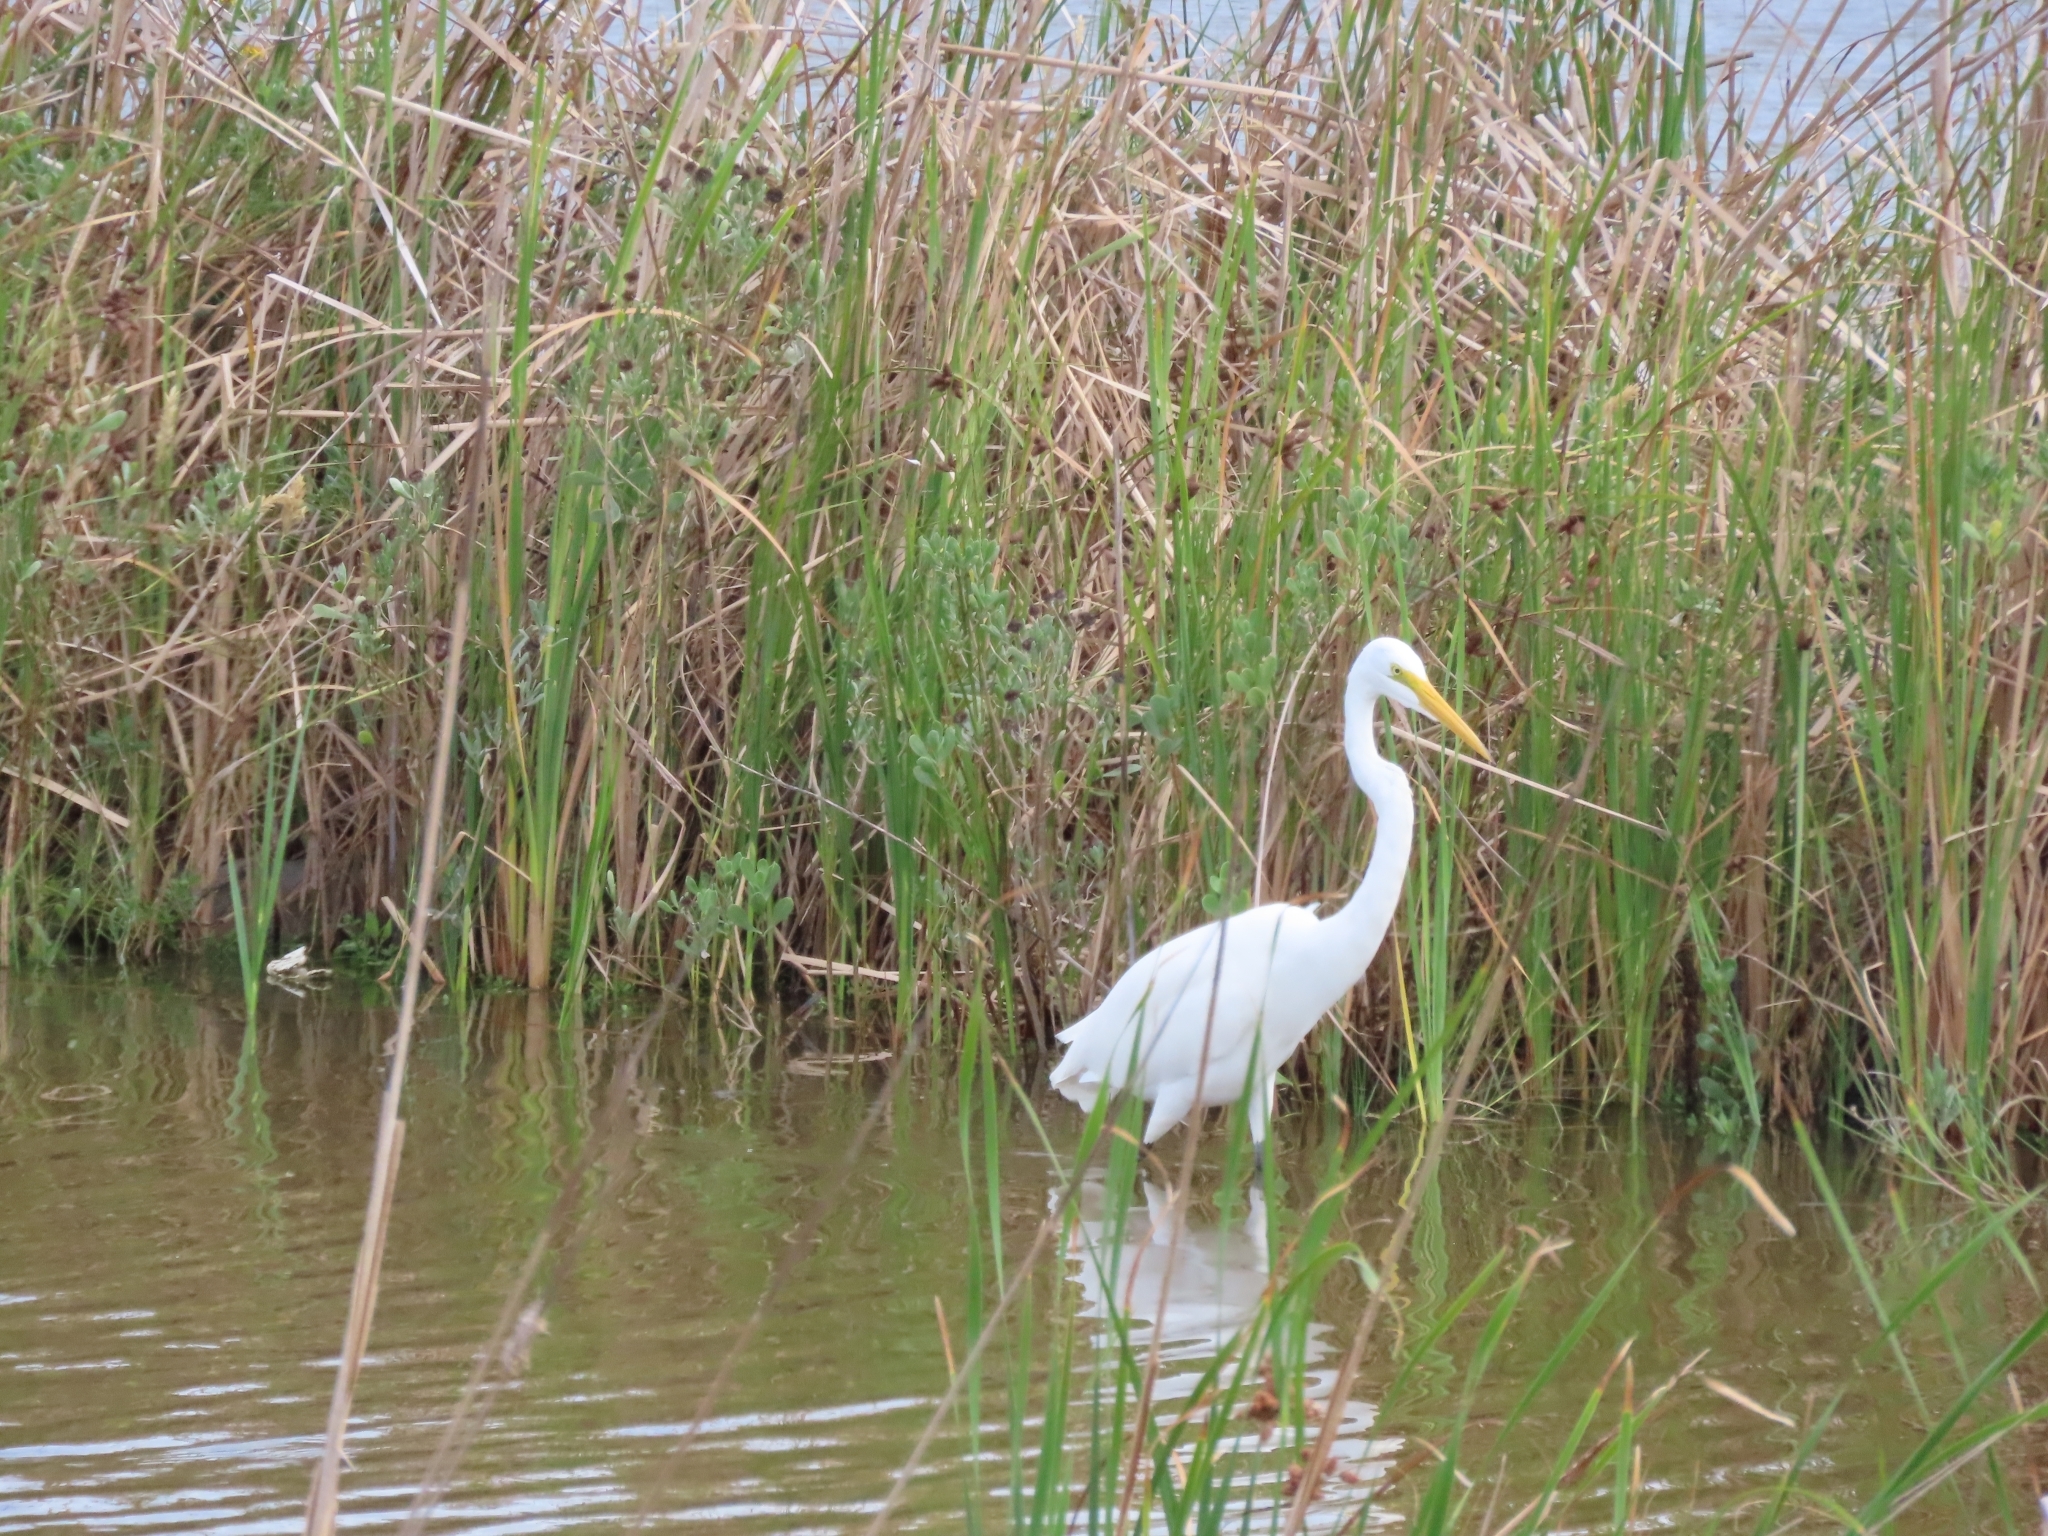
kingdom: Animalia
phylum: Chordata
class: Aves
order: Pelecaniformes
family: Ardeidae
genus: Ardea
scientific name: Ardea alba
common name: Great egret
